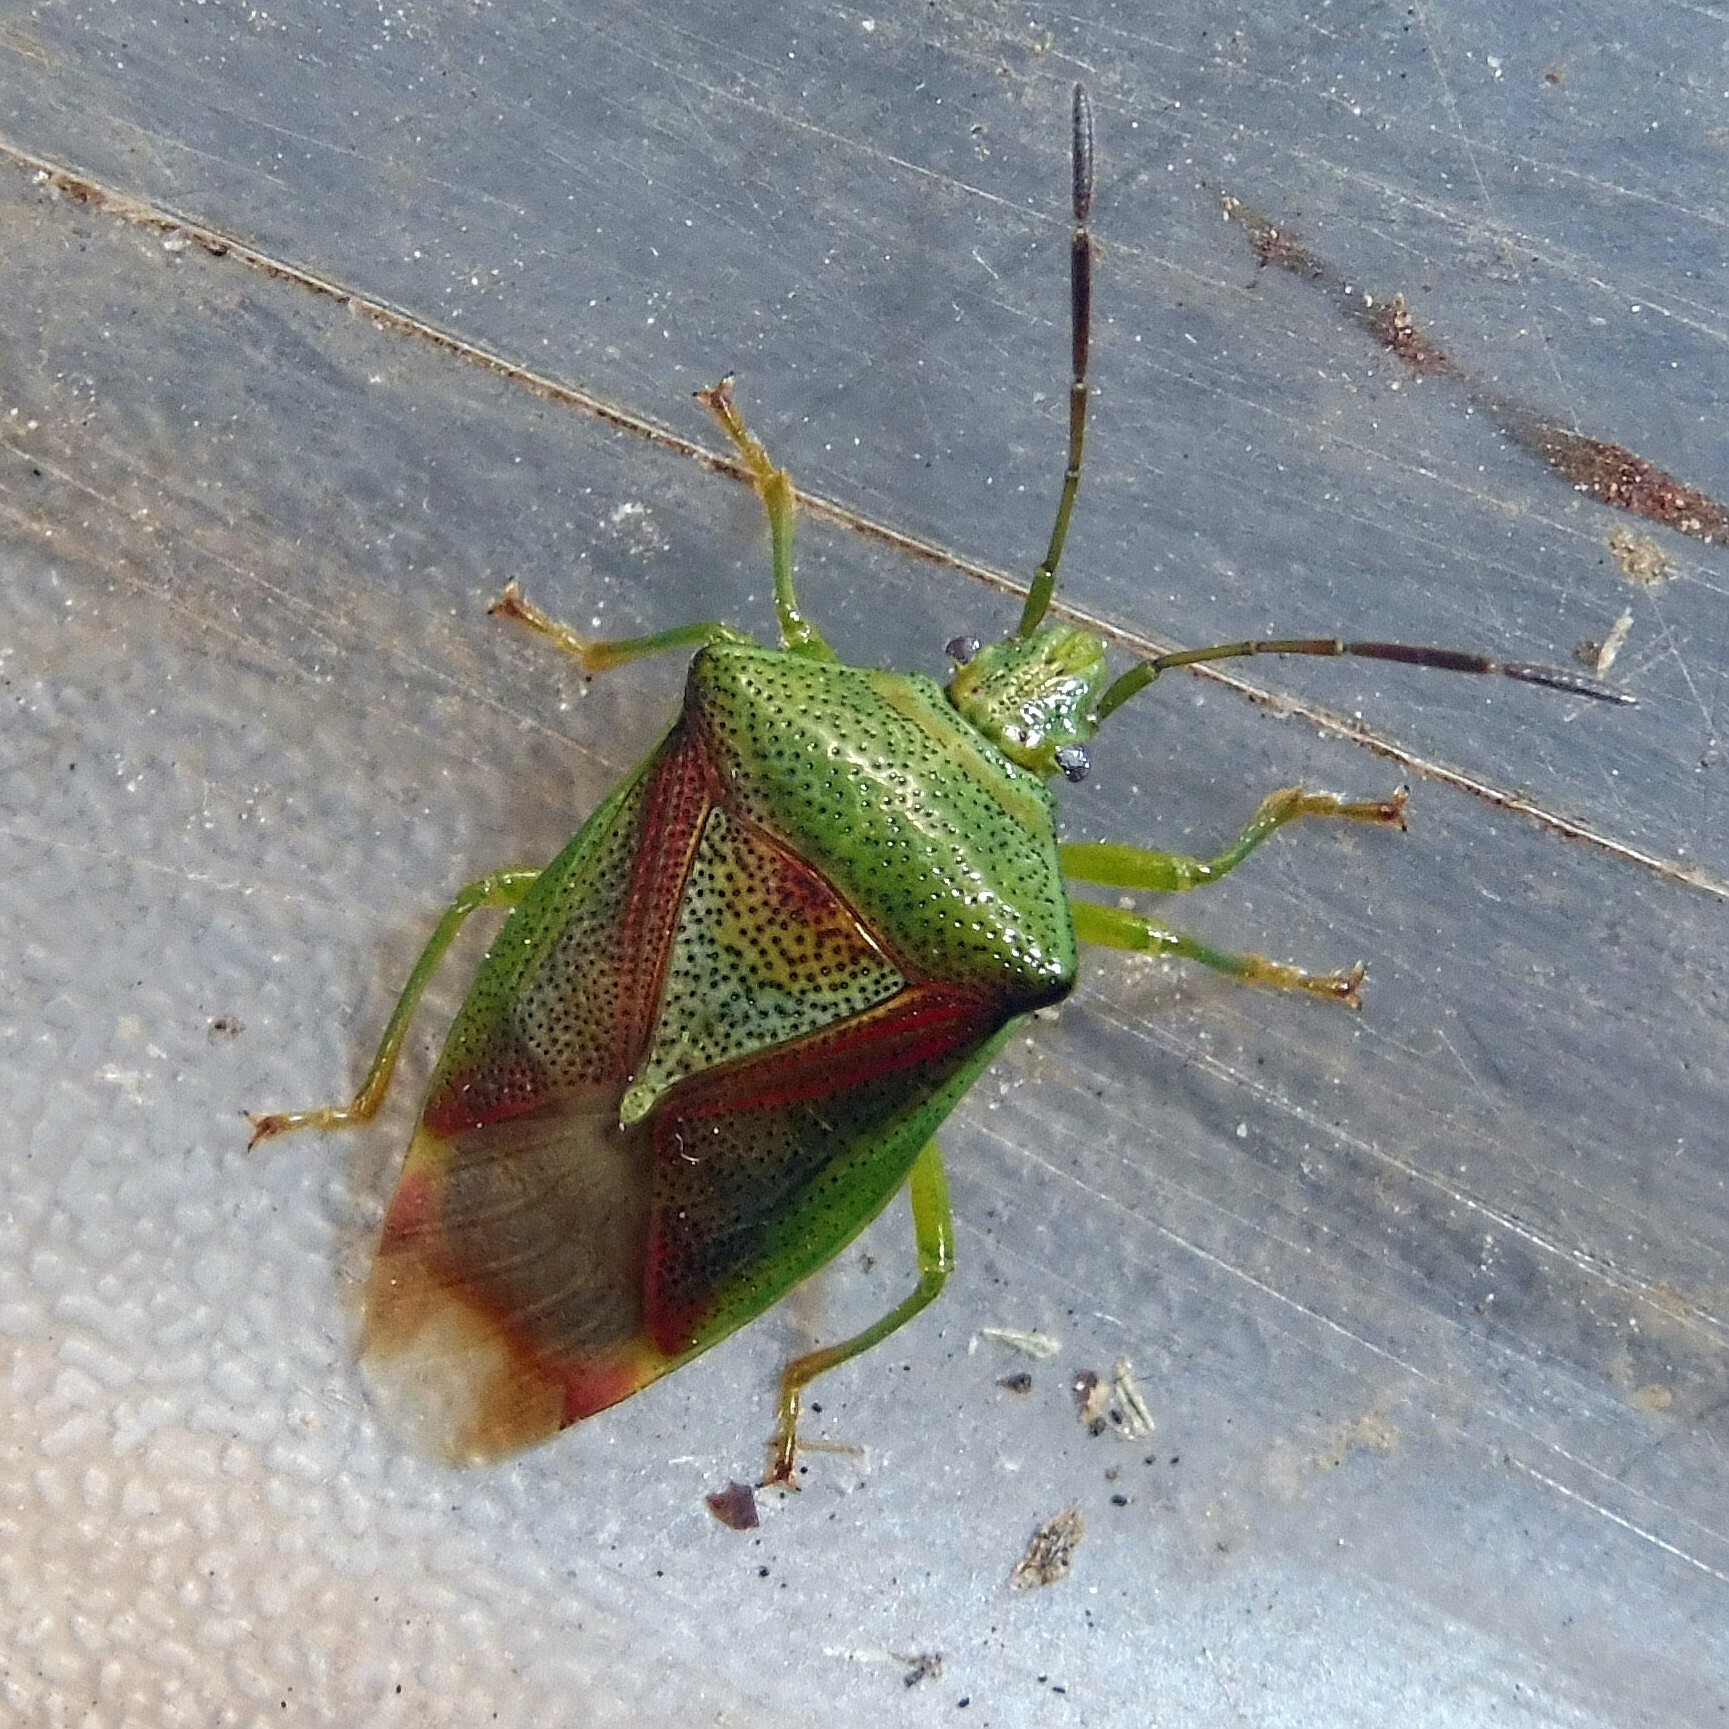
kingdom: Animalia
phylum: Arthropoda
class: Insecta
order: Hemiptera
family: Acanthosomatidae
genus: Elasmostethus
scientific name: Elasmostethus interstinctus
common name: Birch shieldbug
